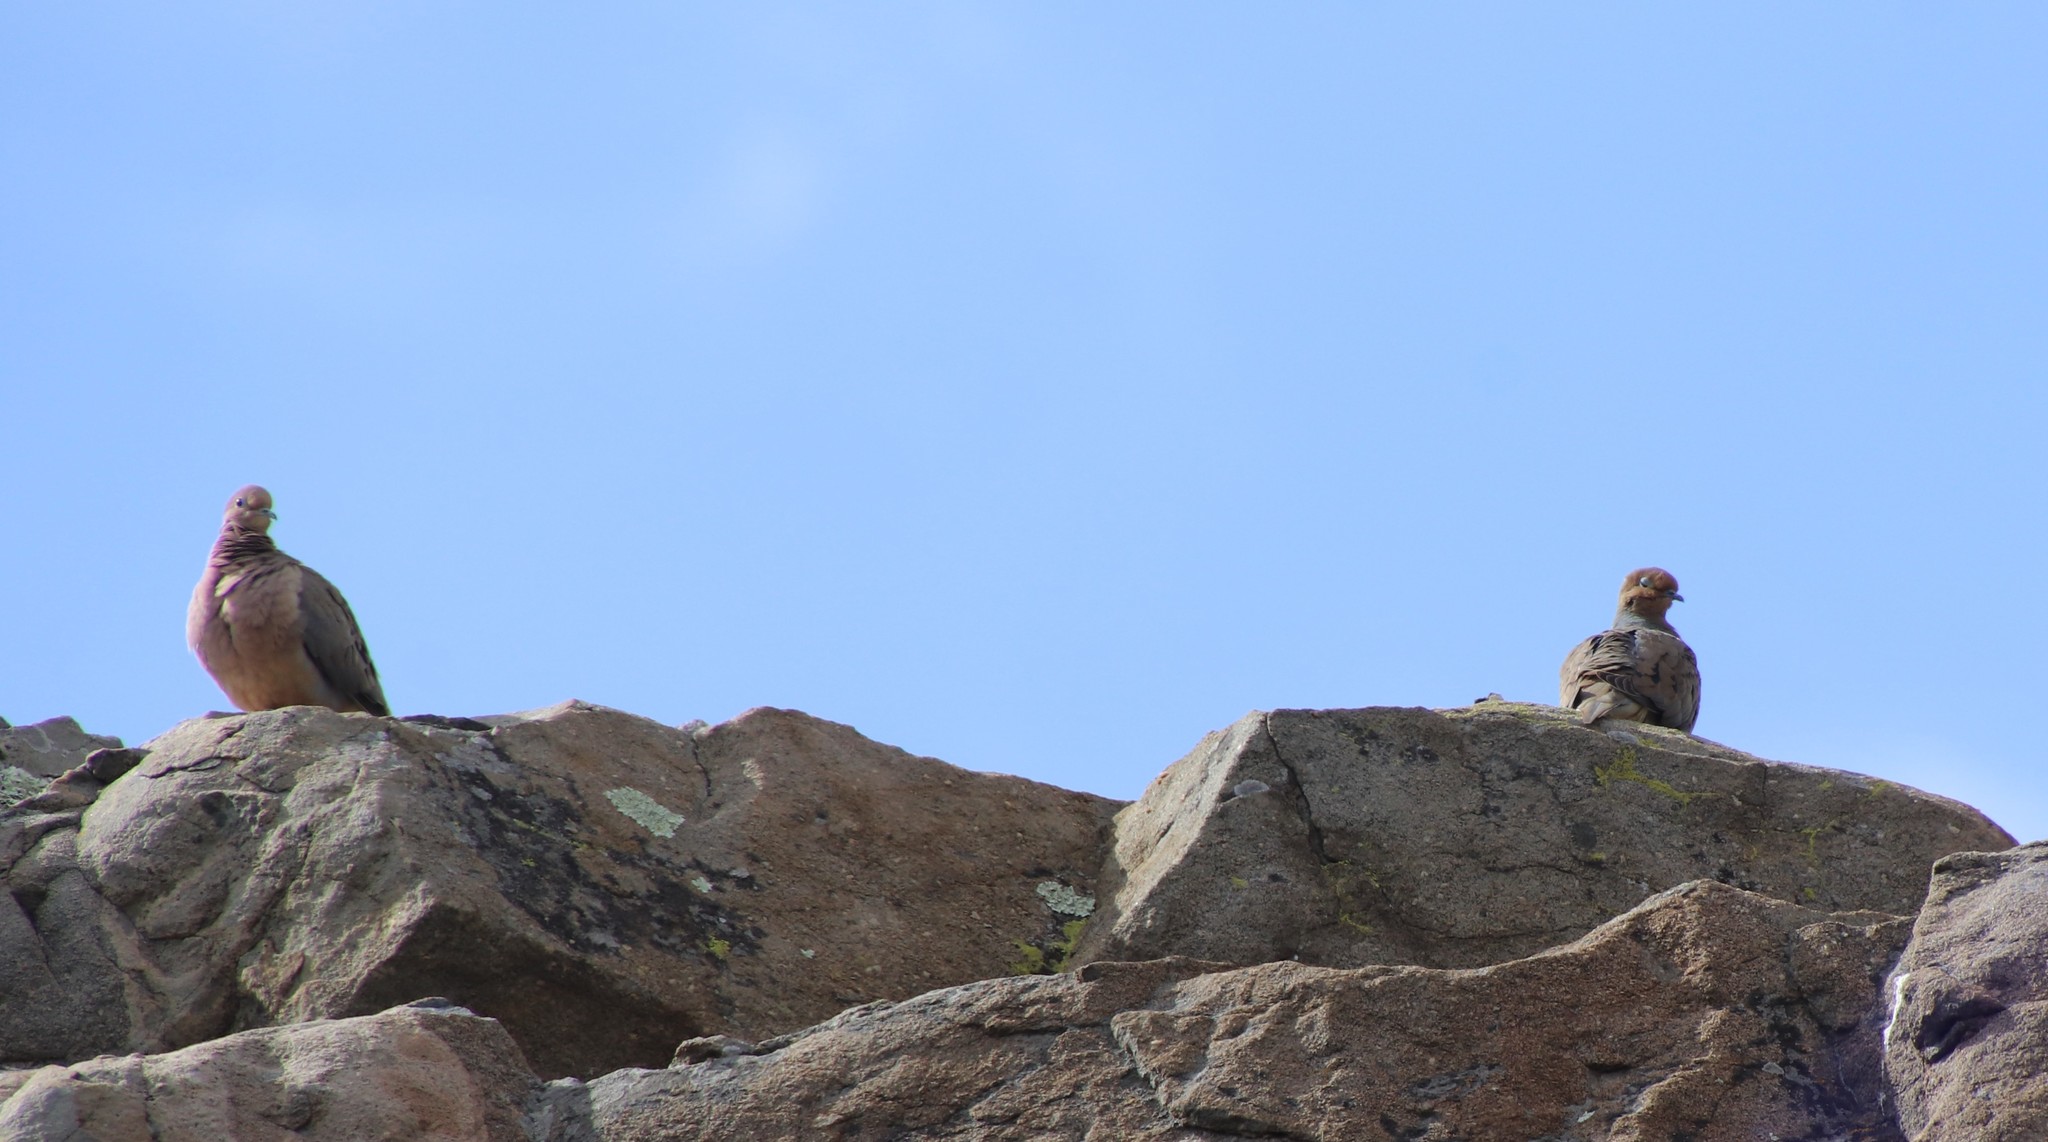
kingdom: Animalia
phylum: Chordata
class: Aves
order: Columbiformes
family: Columbidae
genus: Zenaida
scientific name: Zenaida macroura
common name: Mourning dove
